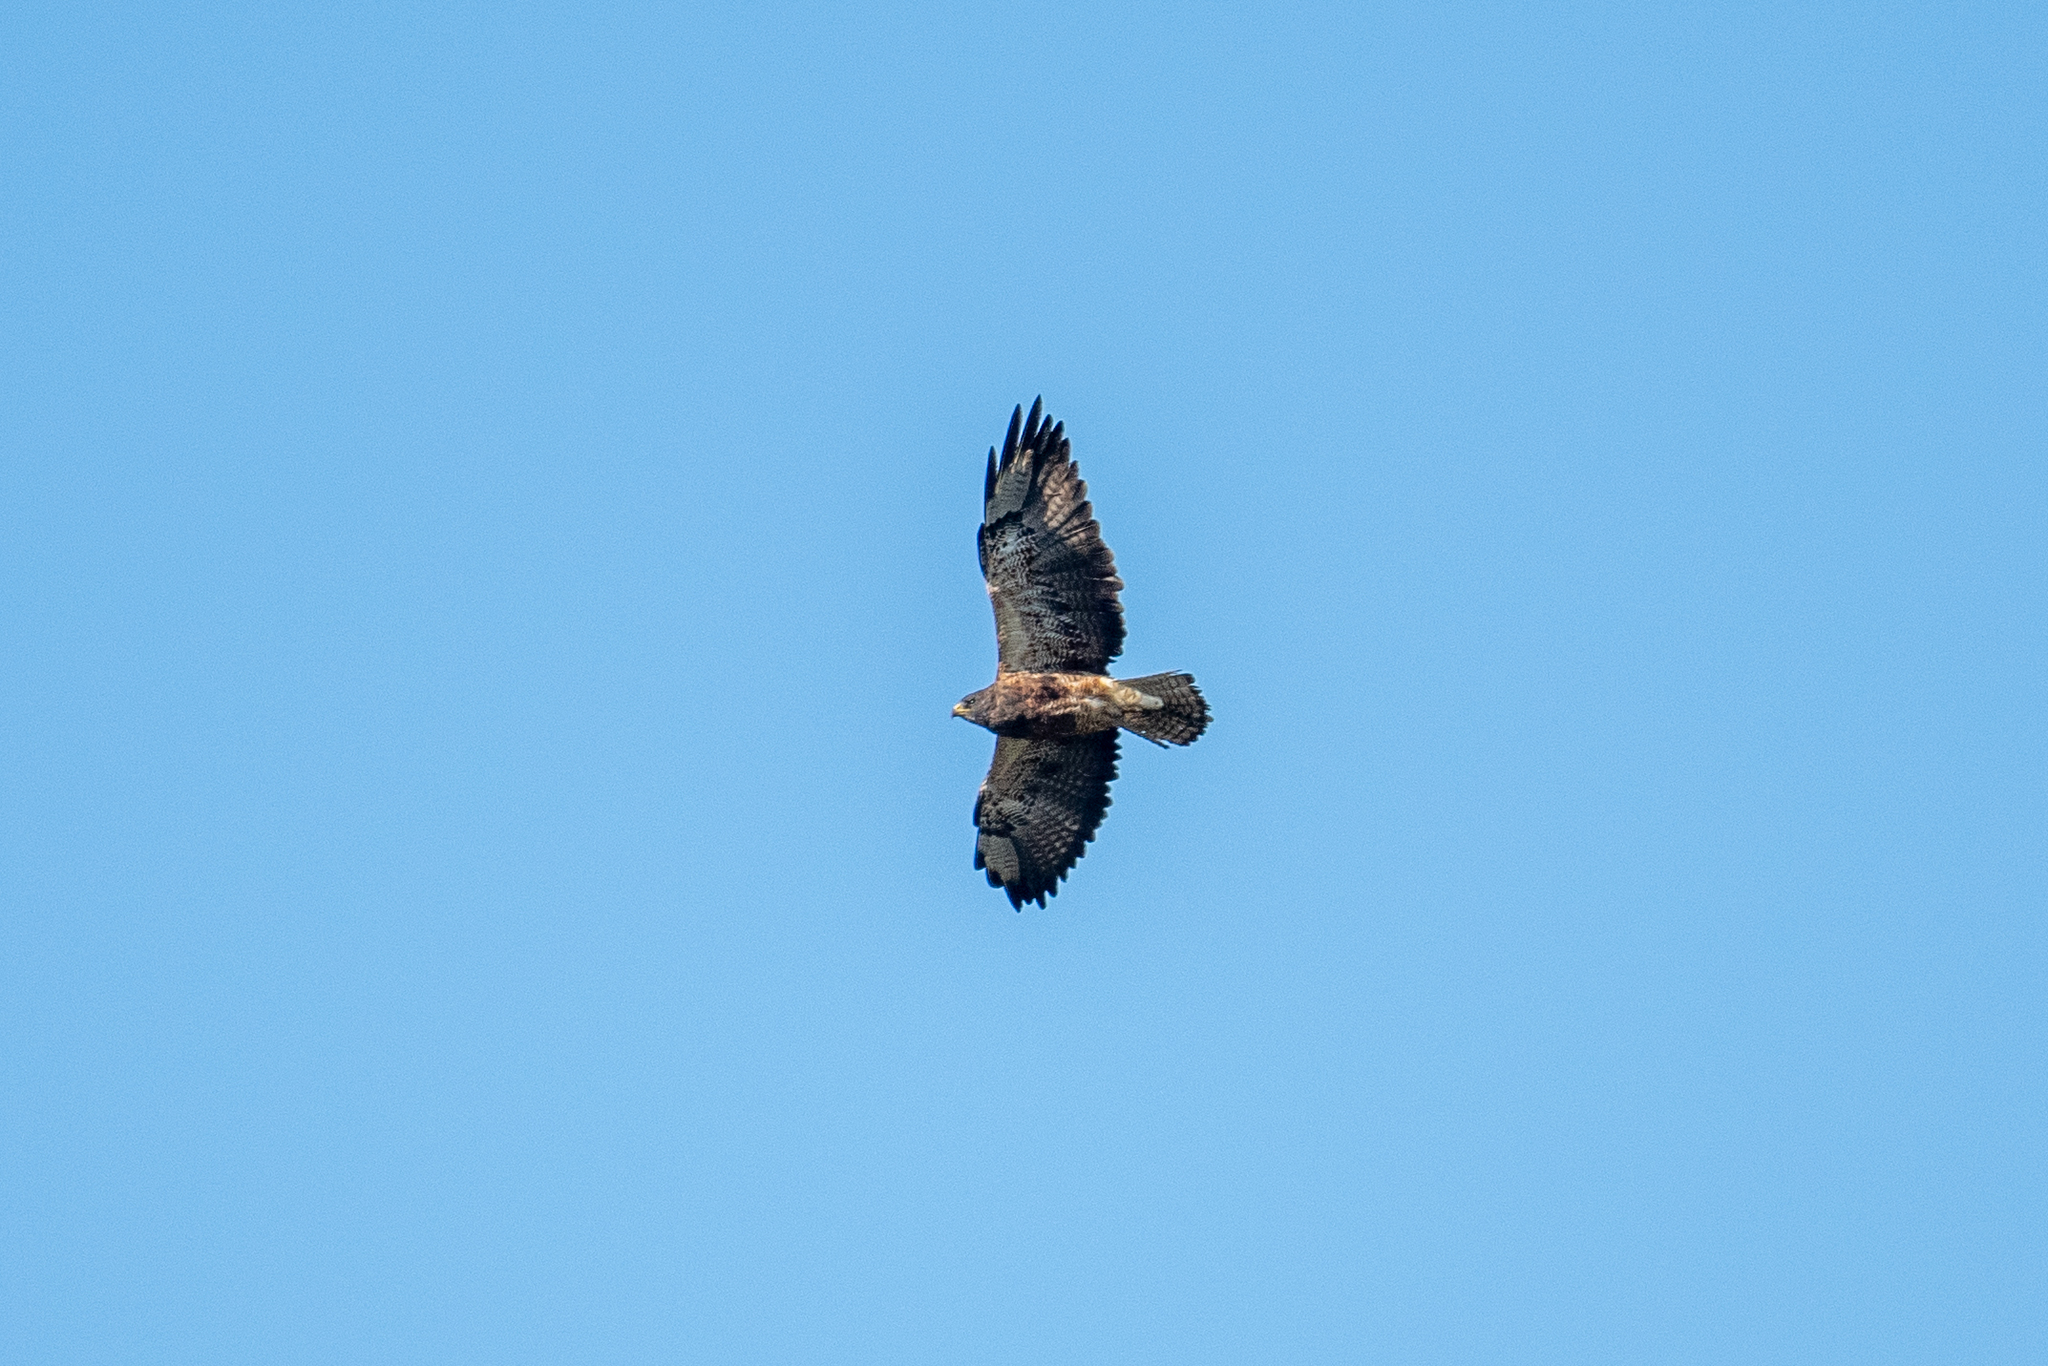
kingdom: Animalia
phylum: Chordata
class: Aves
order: Accipitriformes
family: Accipitridae
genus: Buteo
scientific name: Buteo swainsoni
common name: Swainson's hawk
